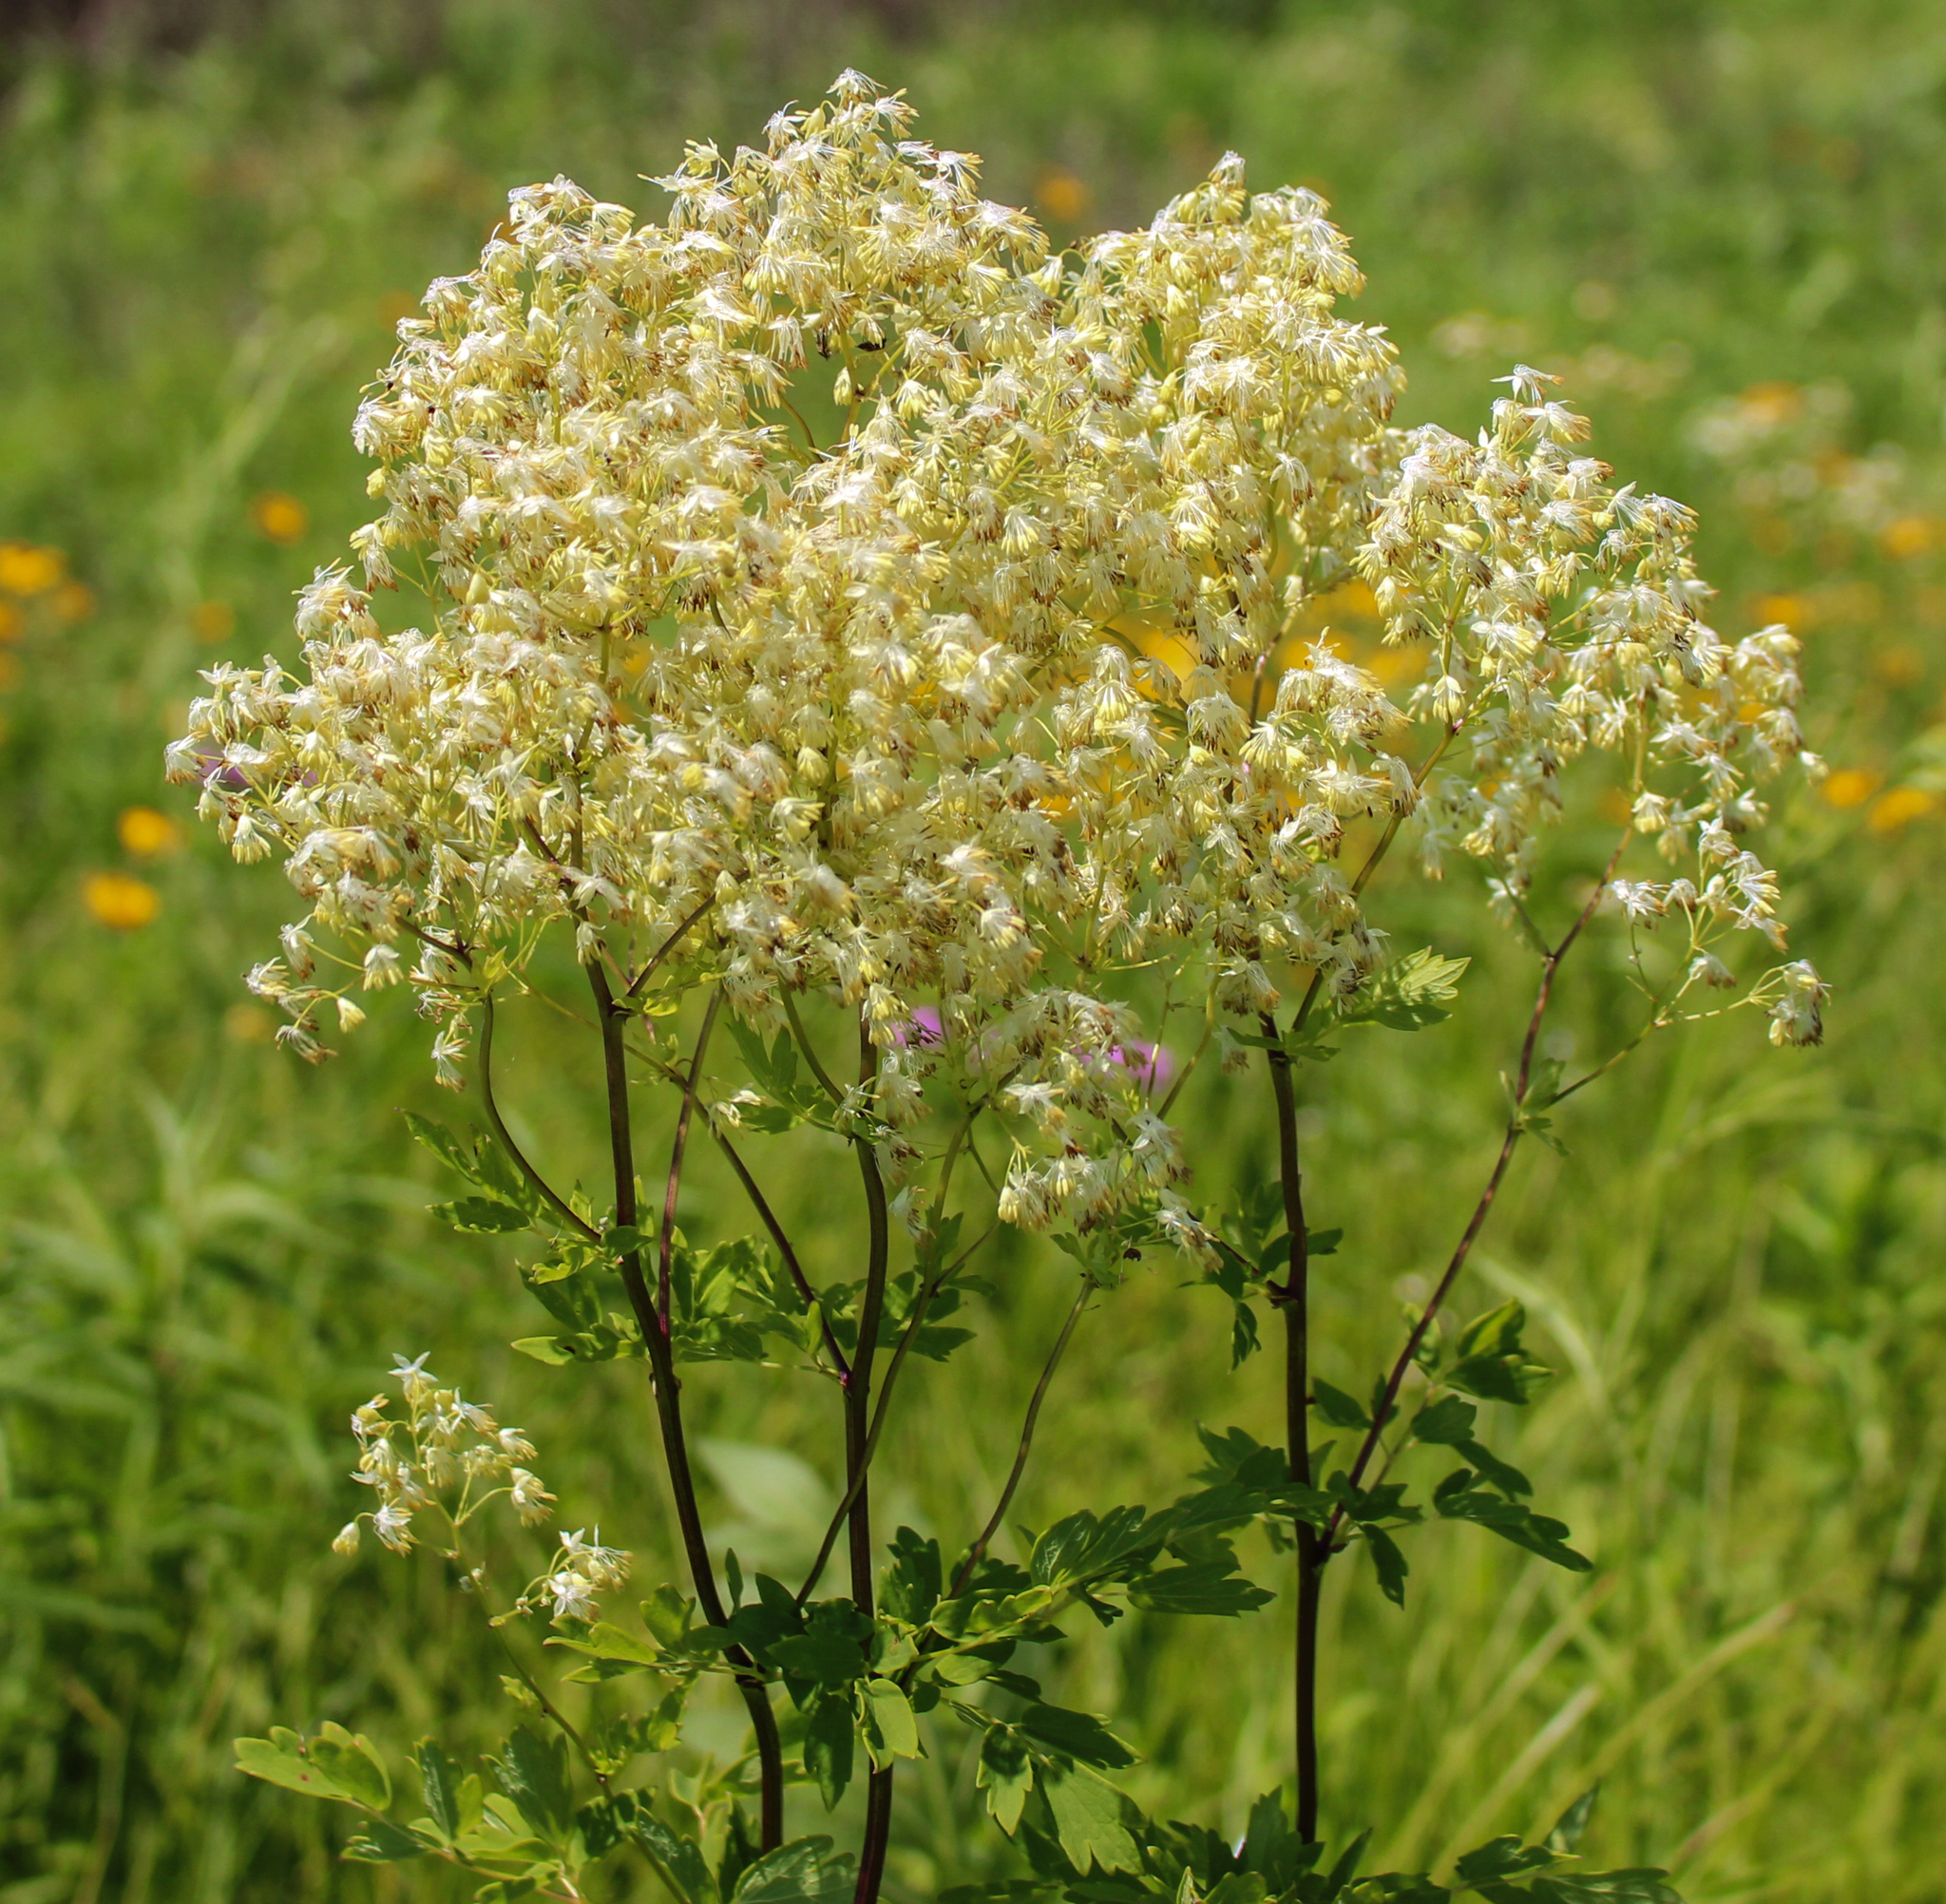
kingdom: Plantae
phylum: Tracheophyta
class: Magnoliopsida
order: Ranunculales
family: Ranunculaceae
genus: Thalictrum
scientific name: Thalictrum dasycarpum
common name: Purple meadow-rue
